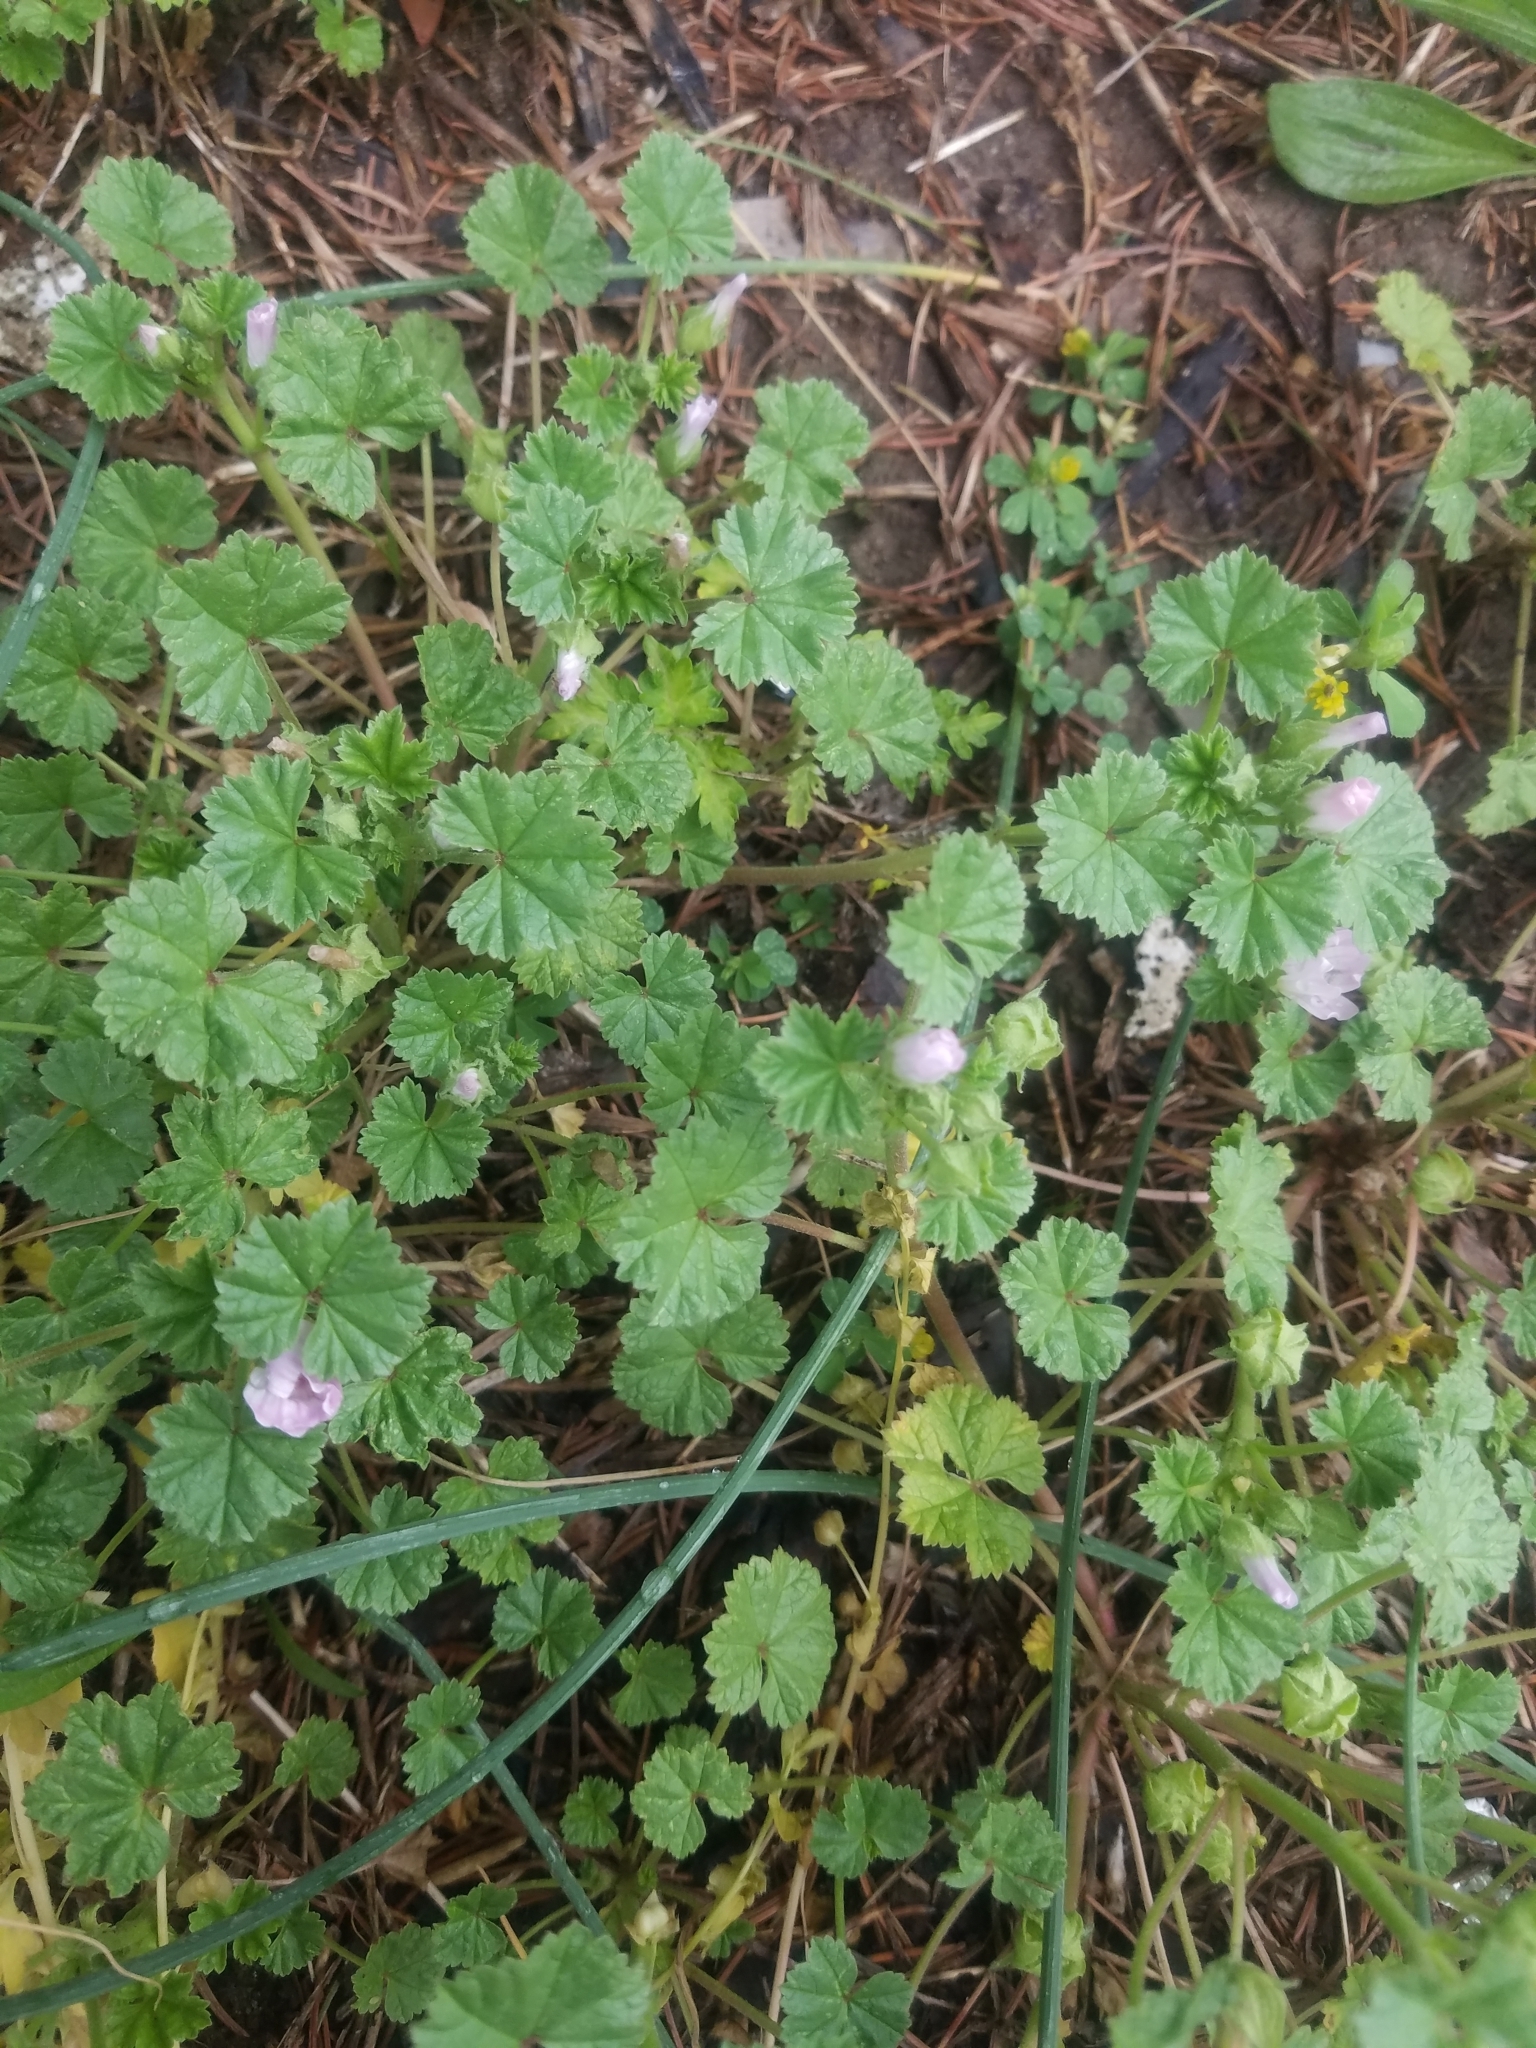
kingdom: Plantae
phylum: Tracheophyta
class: Magnoliopsida
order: Malvales
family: Malvaceae
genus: Malva
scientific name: Malva neglecta
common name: Common mallow
